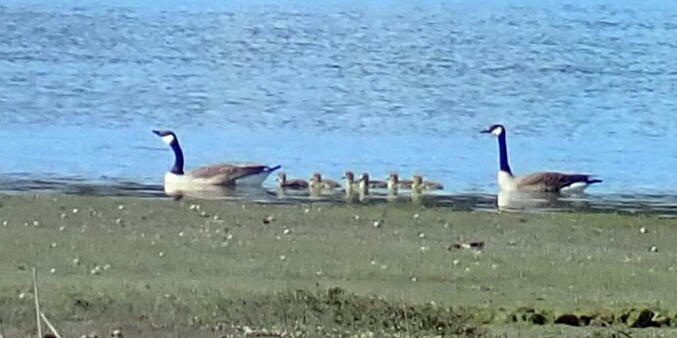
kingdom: Animalia
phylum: Chordata
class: Aves
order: Anseriformes
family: Anatidae
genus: Branta
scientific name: Branta canadensis
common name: Canada goose
